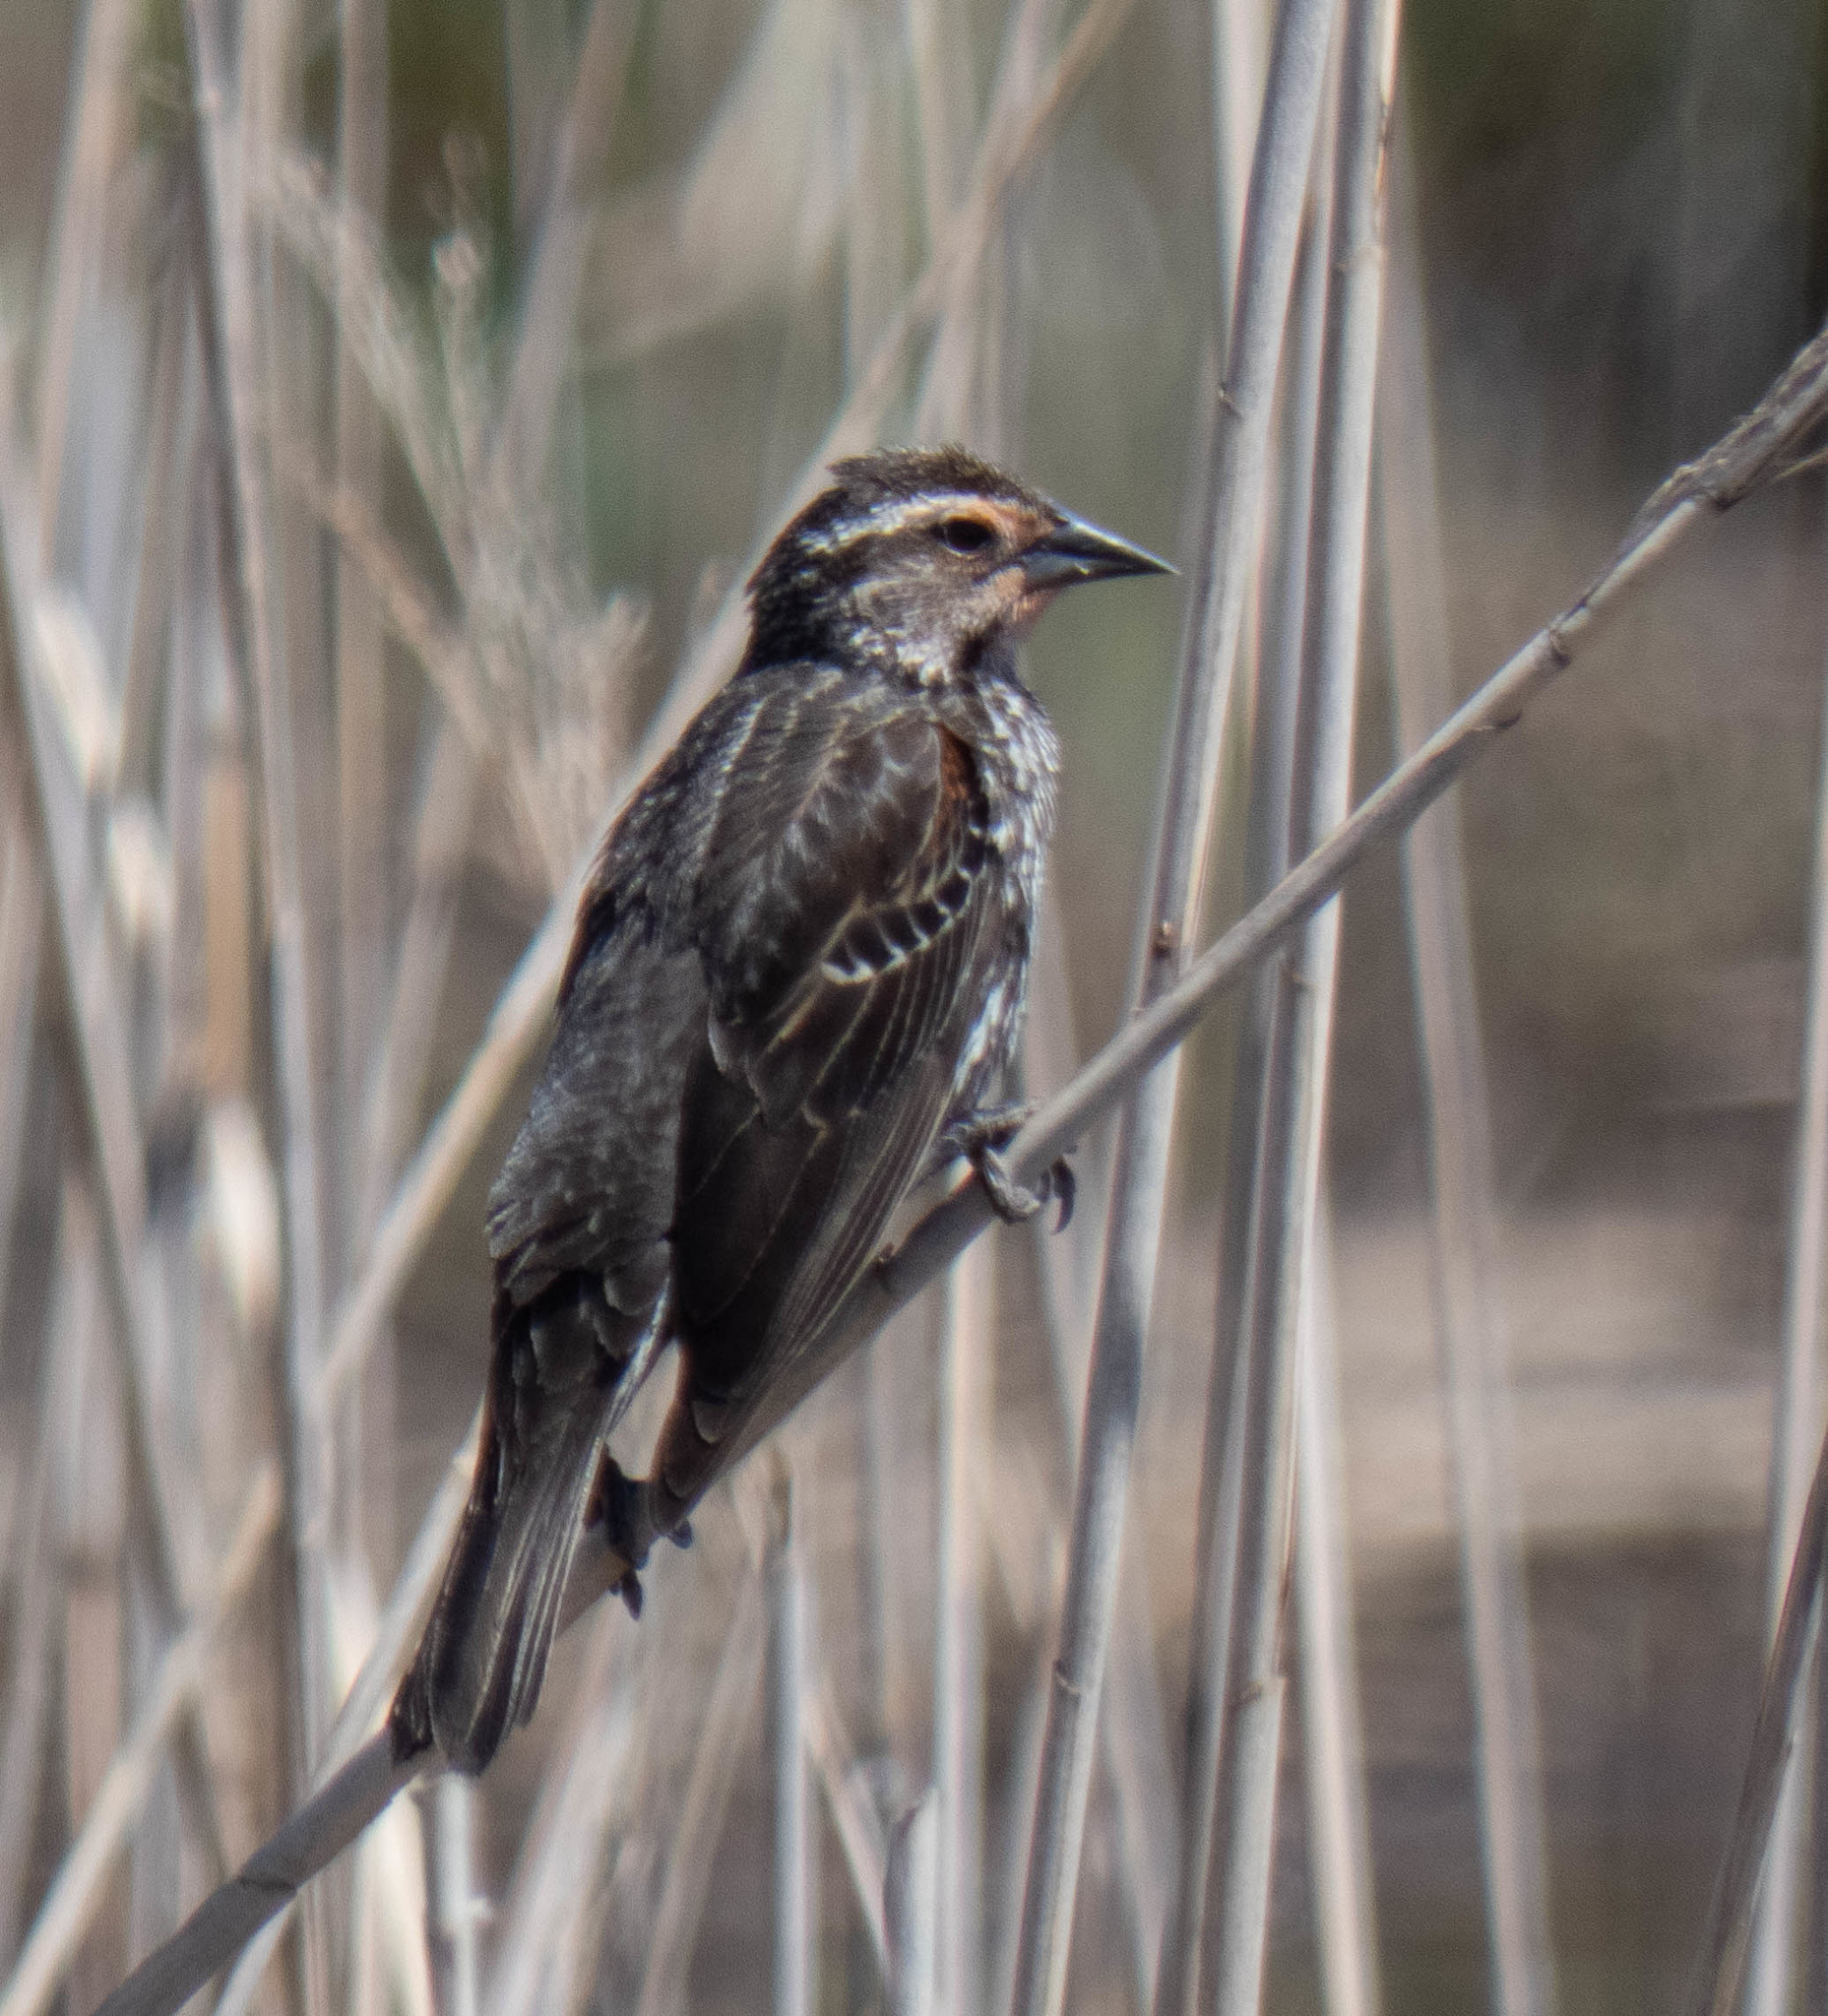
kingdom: Animalia
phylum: Chordata
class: Aves
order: Passeriformes
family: Icteridae
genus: Agelaius
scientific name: Agelaius phoeniceus
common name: Red-winged blackbird
